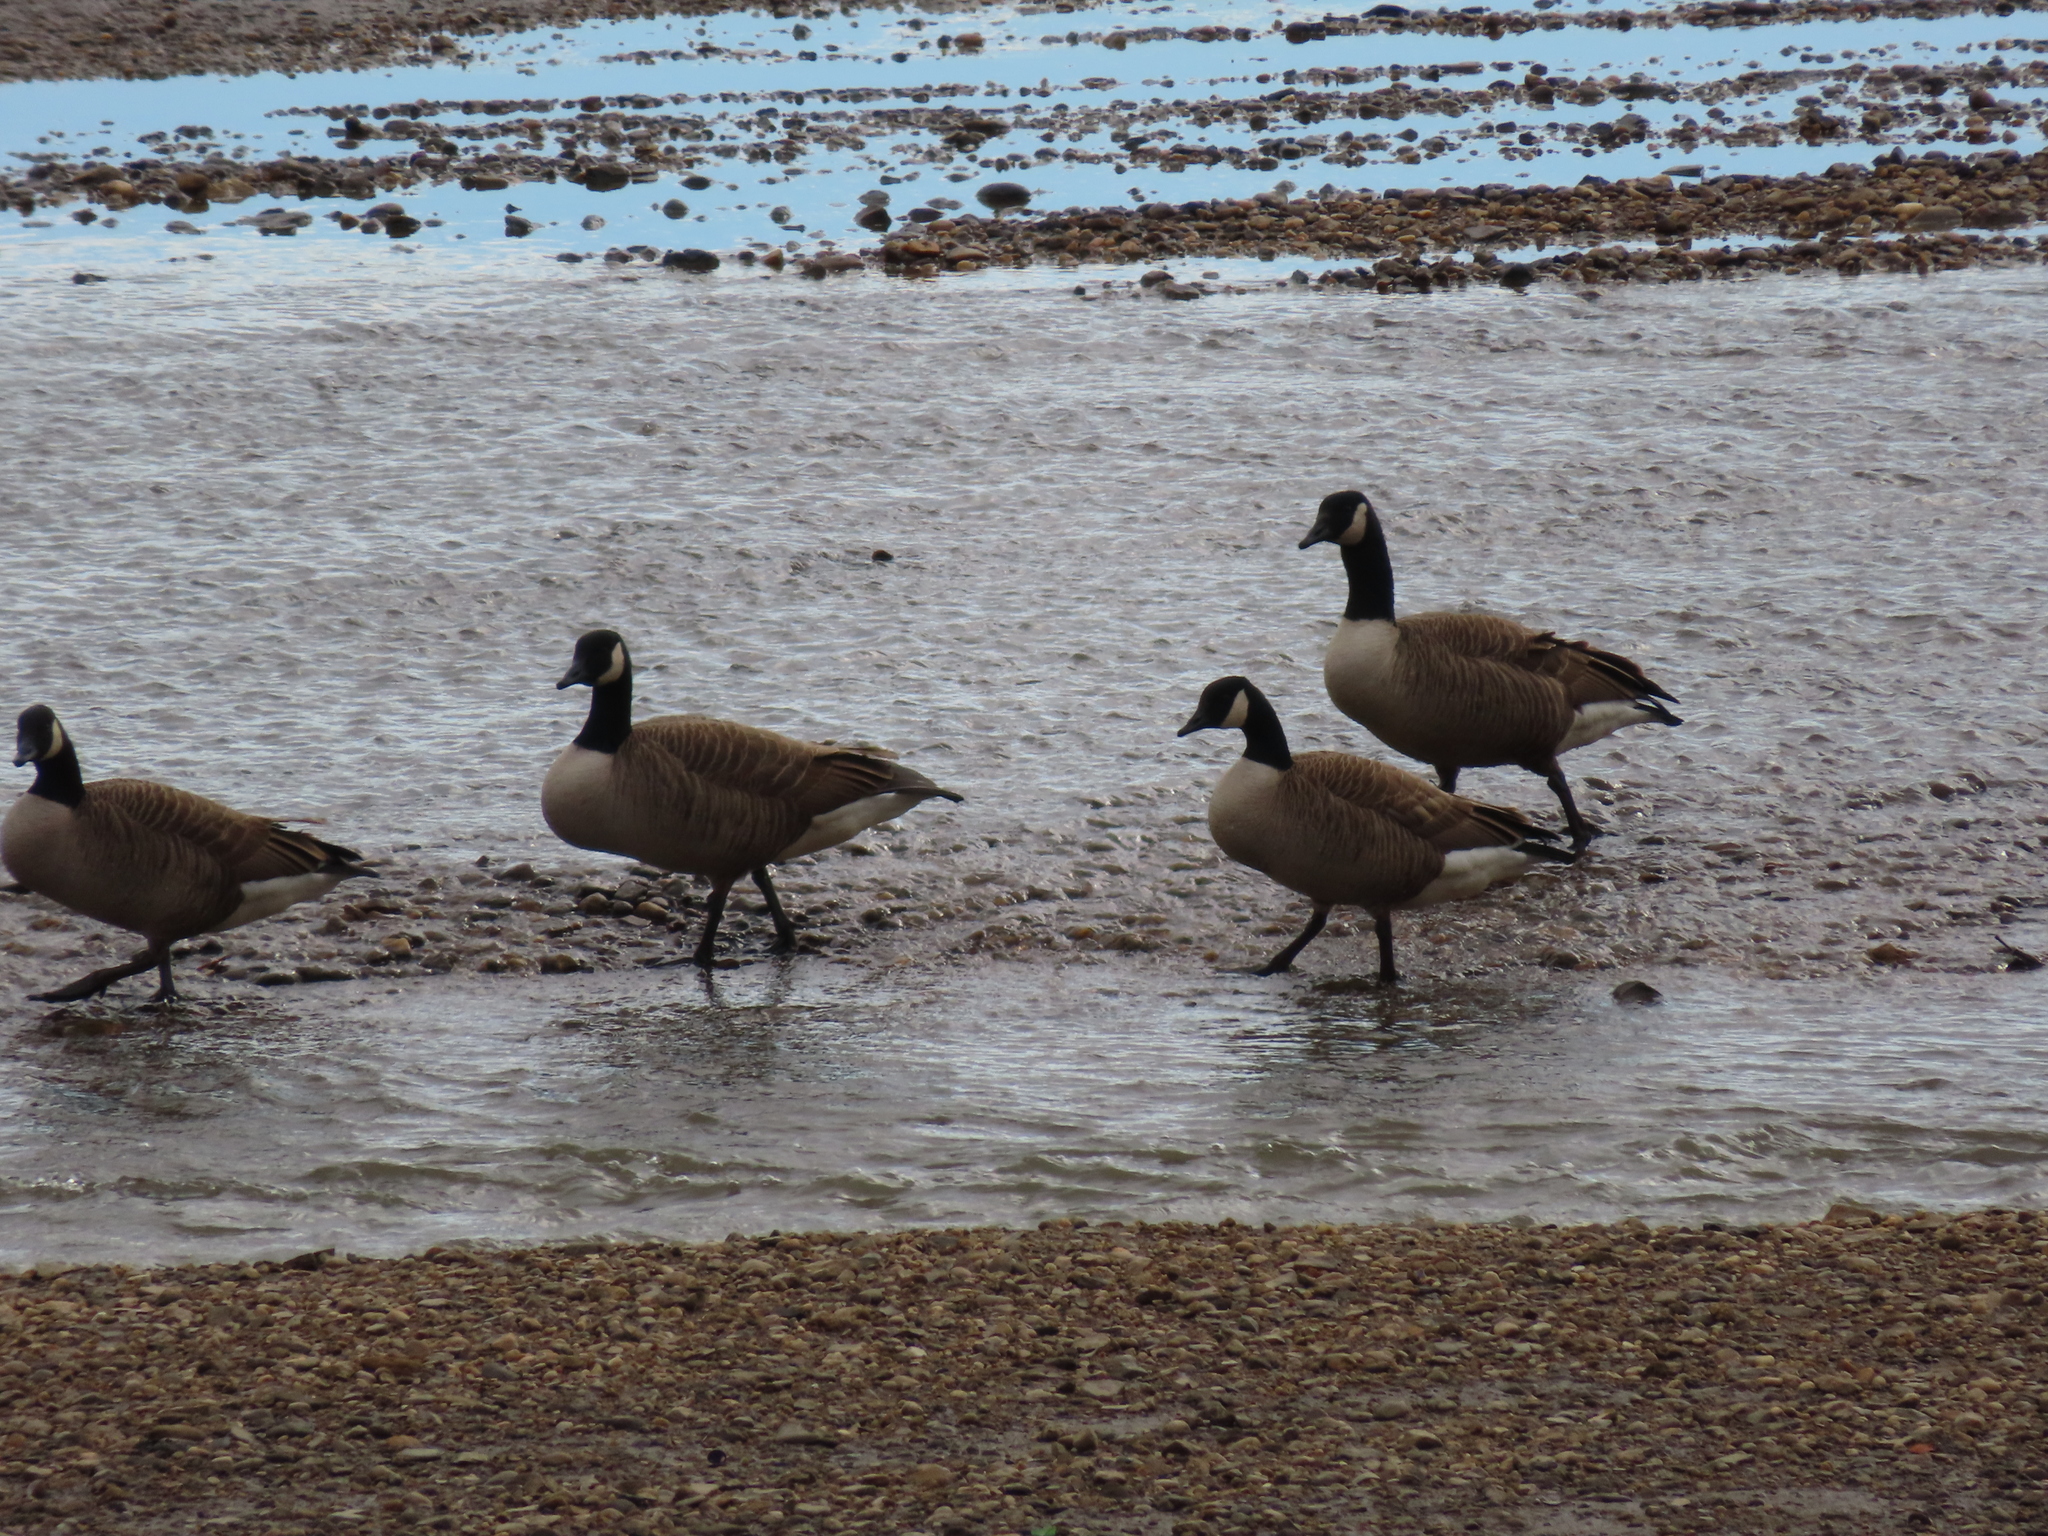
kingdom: Animalia
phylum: Chordata
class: Aves
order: Anseriformes
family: Anatidae
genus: Branta
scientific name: Branta canadensis
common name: Canada goose
